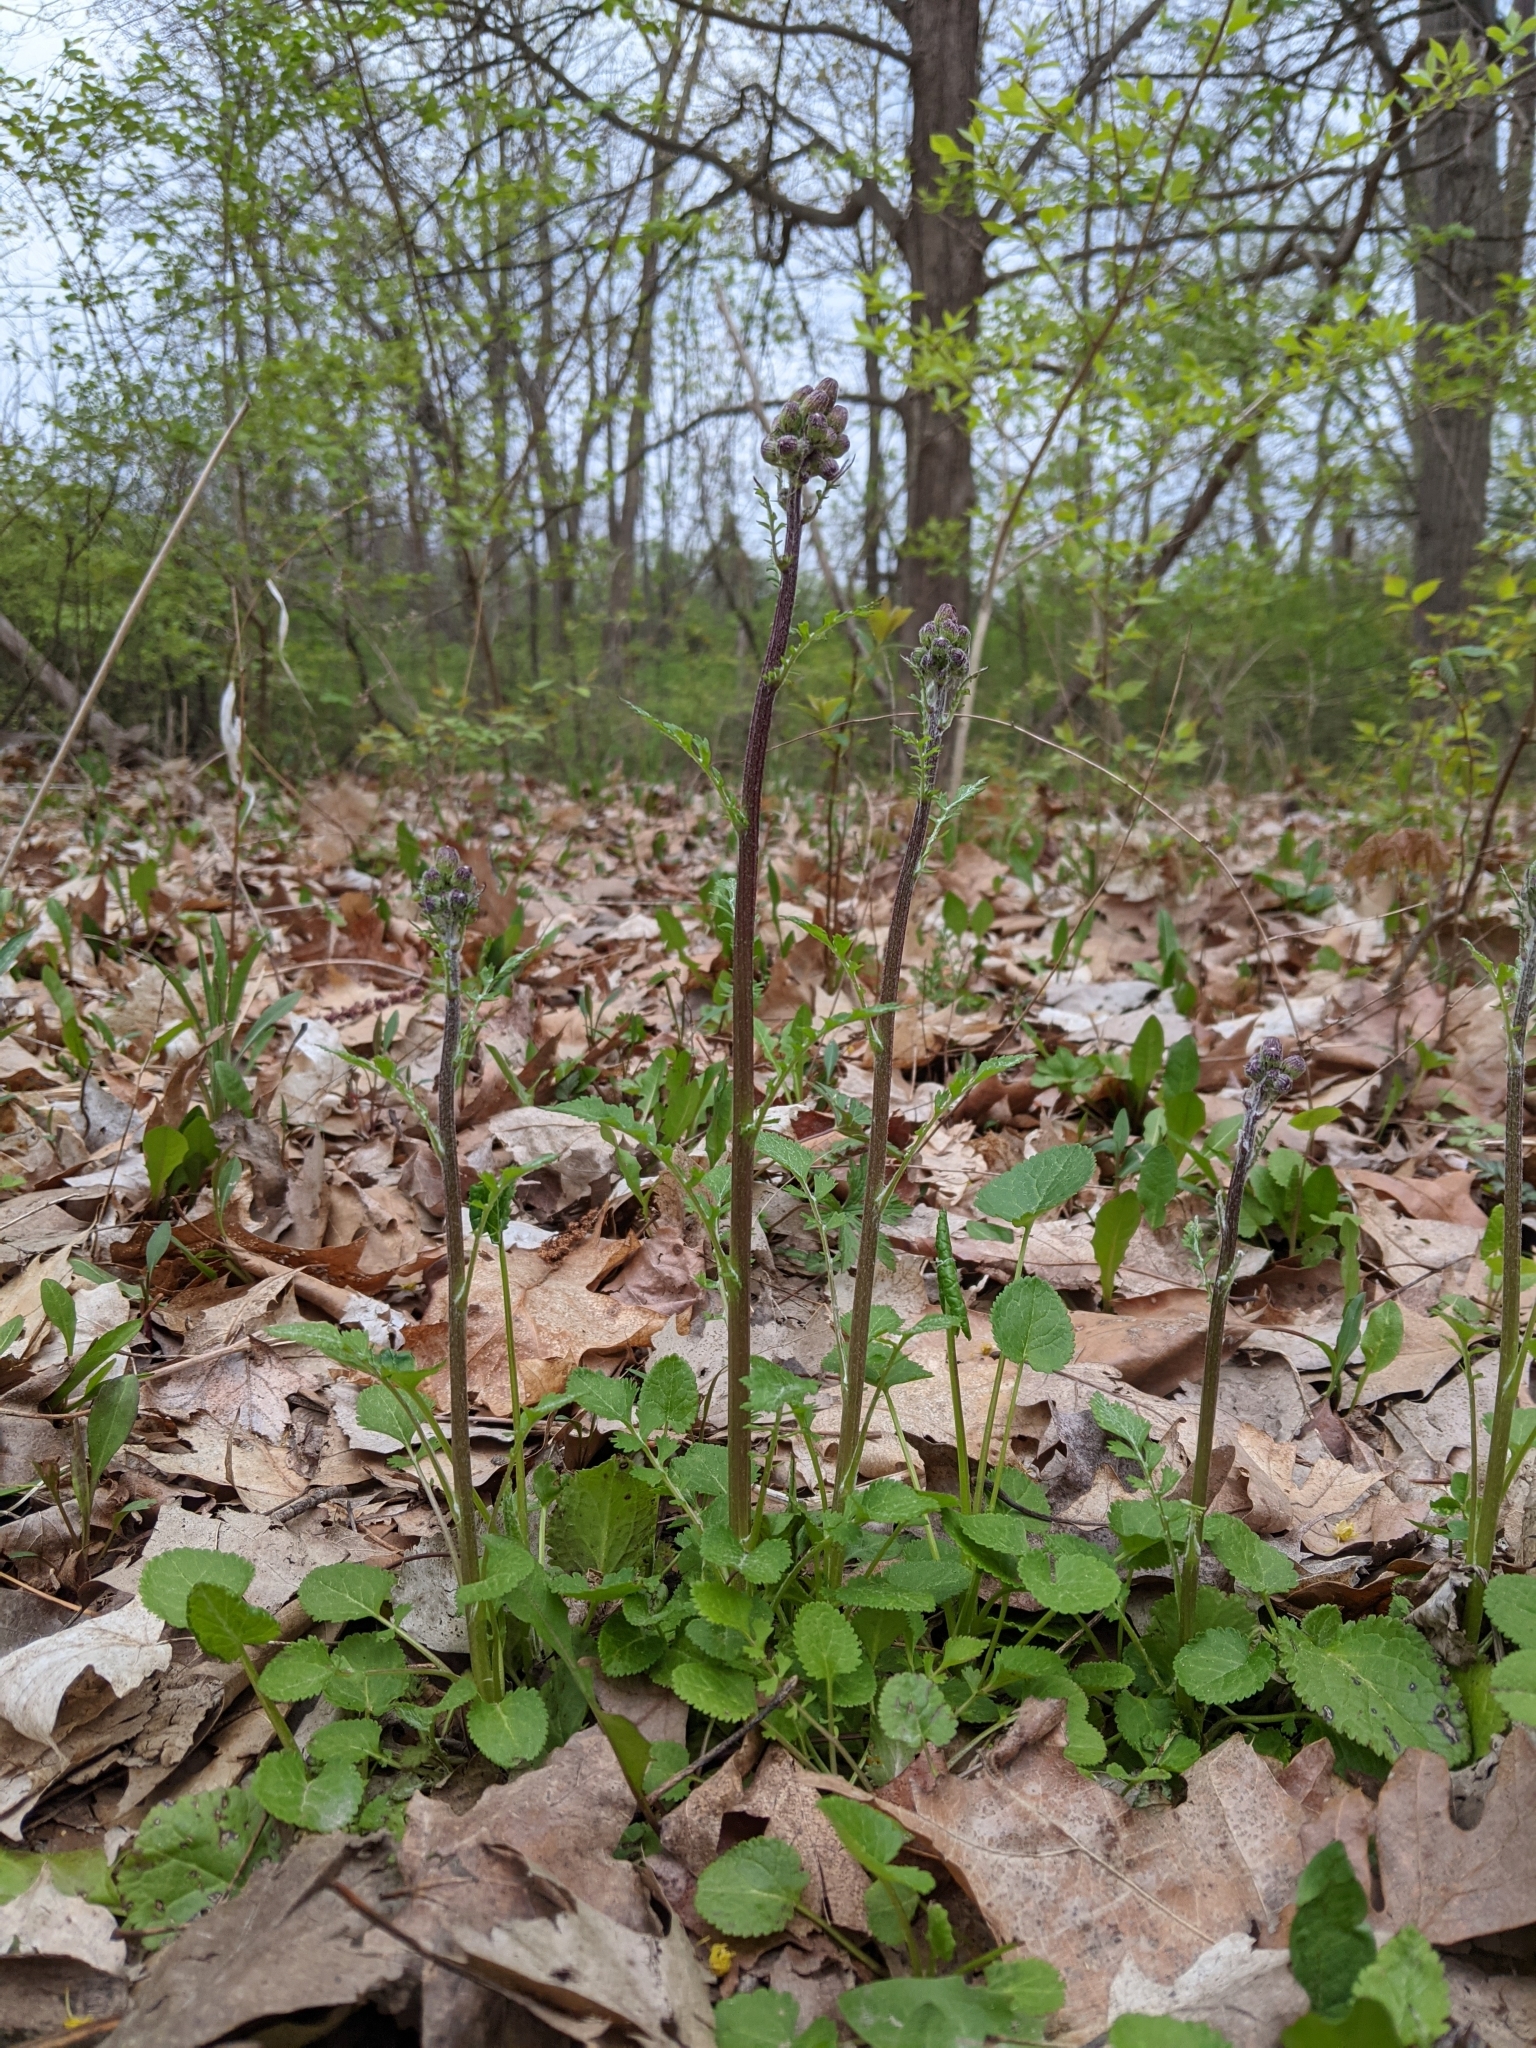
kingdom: Plantae
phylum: Tracheophyta
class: Magnoliopsida
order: Asterales
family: Asteraceae
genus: Packera
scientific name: Packera aurea
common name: Golden groundsel
